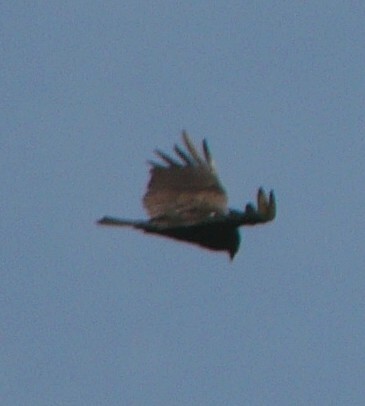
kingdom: Animalia
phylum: Chordata
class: Aves
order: Accipitriformes
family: Cathartidae
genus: Cathartes
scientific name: Cathartes aura
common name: Turkey vulture
